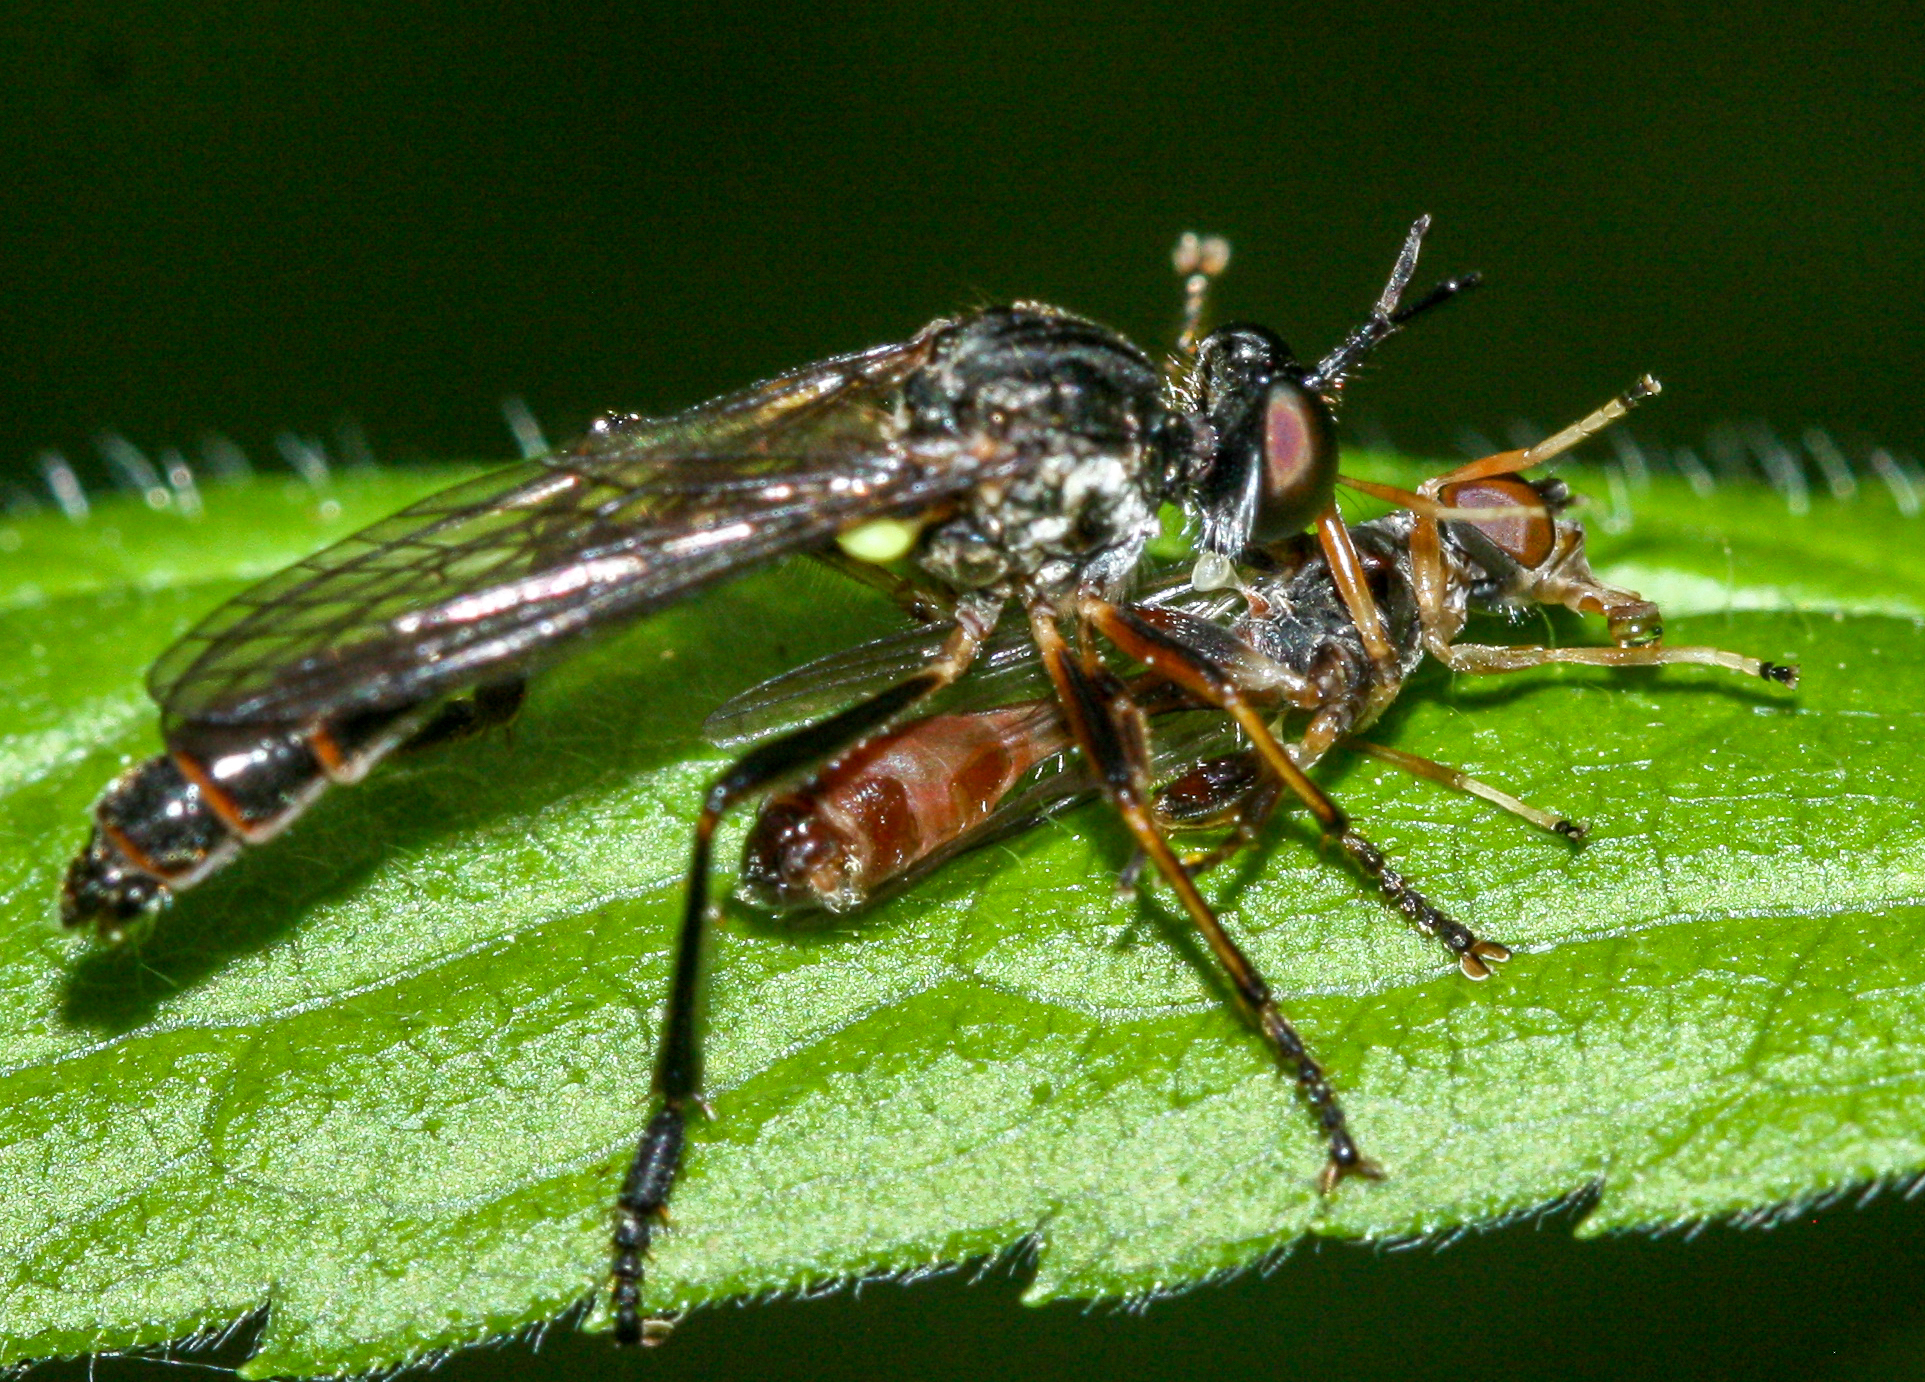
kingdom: Animalia
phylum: Arthropoda
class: Insecta
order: Diptera
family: Asilidae
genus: Dioctria
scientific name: Dioctria hyalipennis
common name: Stripe-legged robberfly
